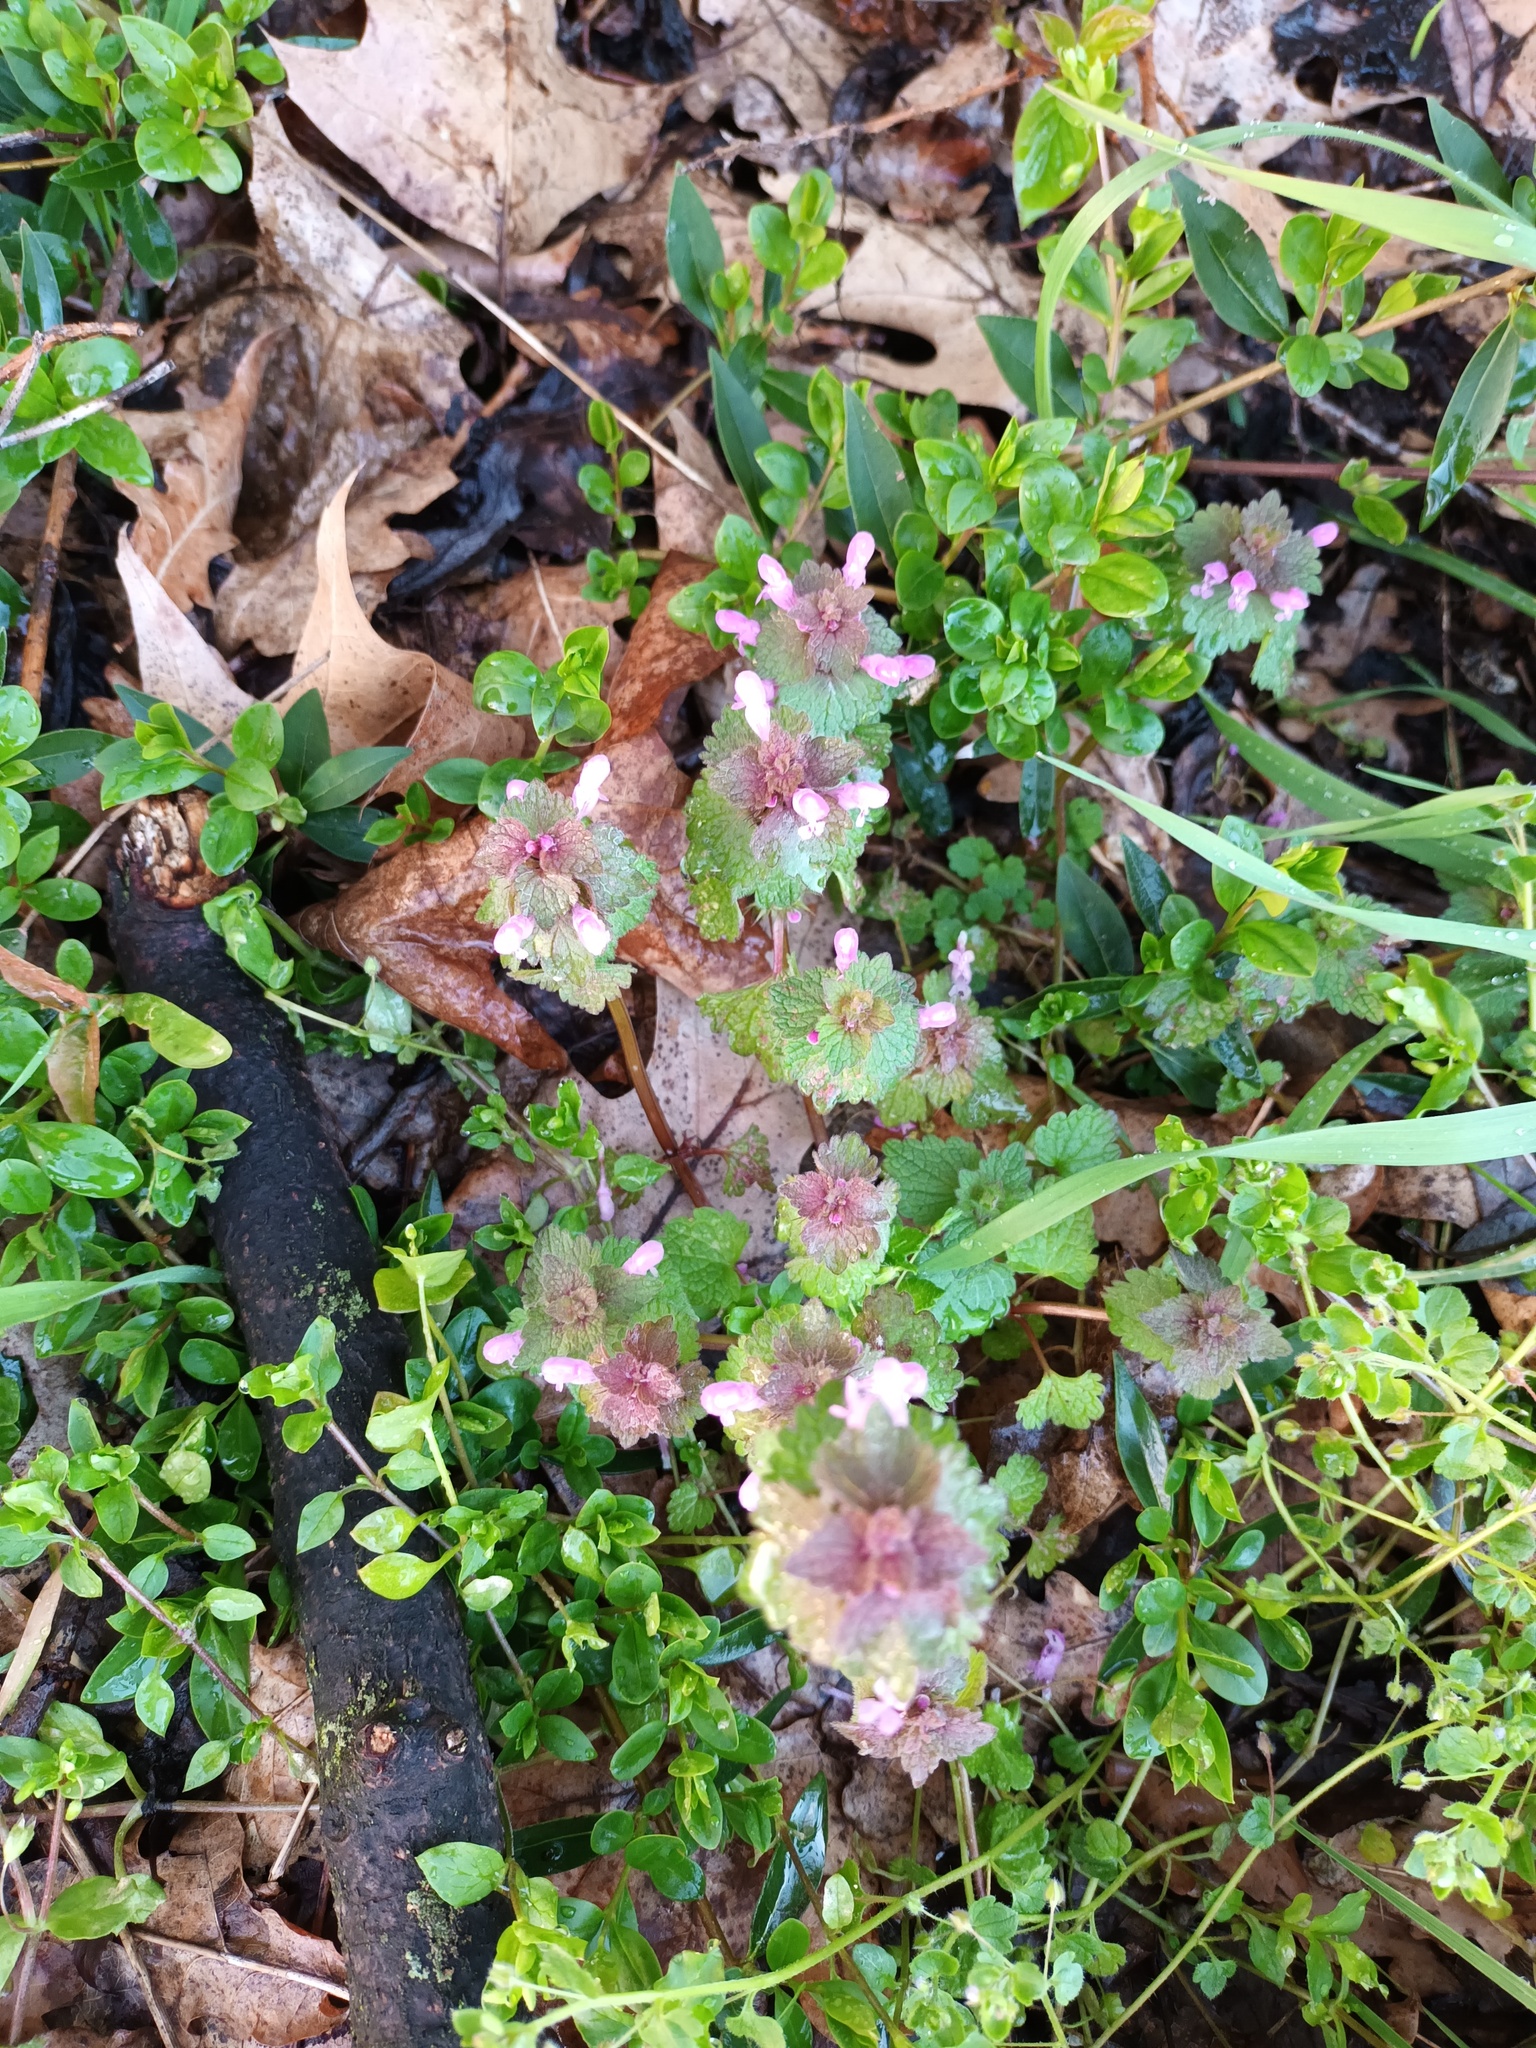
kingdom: Plantae
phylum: Tracheophyta
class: Magnoliopsida
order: Lamiales
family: Lamiaceae
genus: Lamium
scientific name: Lamium purpureum
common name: Red dead-nettle
